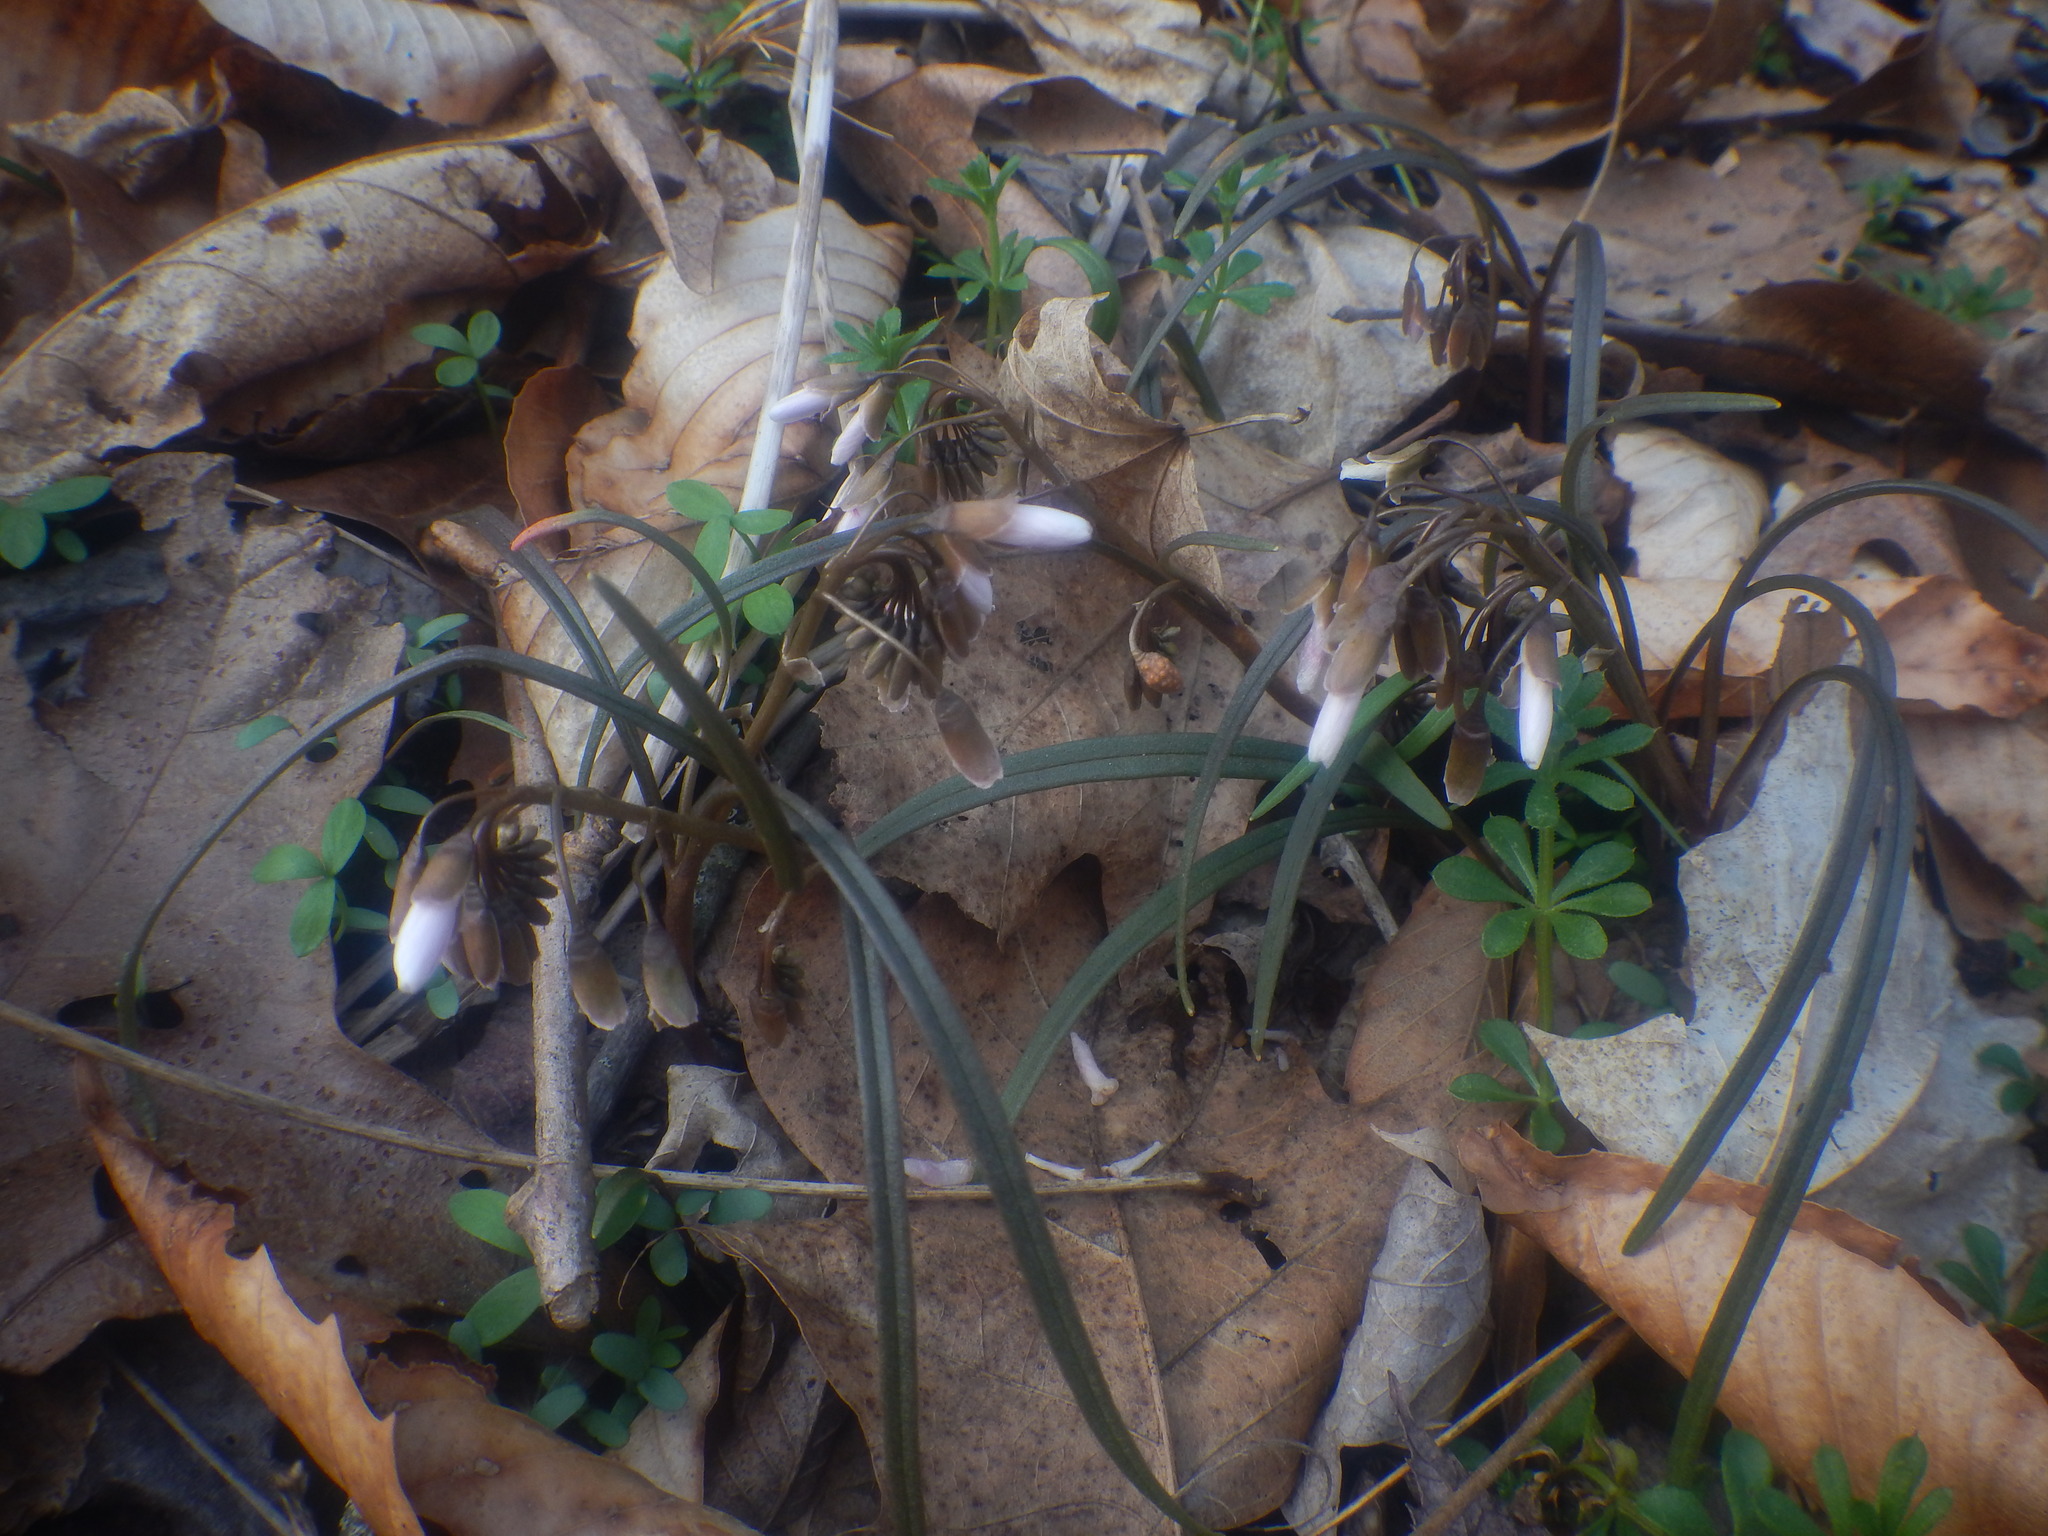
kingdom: Plantae
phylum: Tracheophyta
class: Magnoliopsida
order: Caryophyllales
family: Montiaceae
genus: Claytonia
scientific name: Claytonia virginica
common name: Virginia springbeauty
